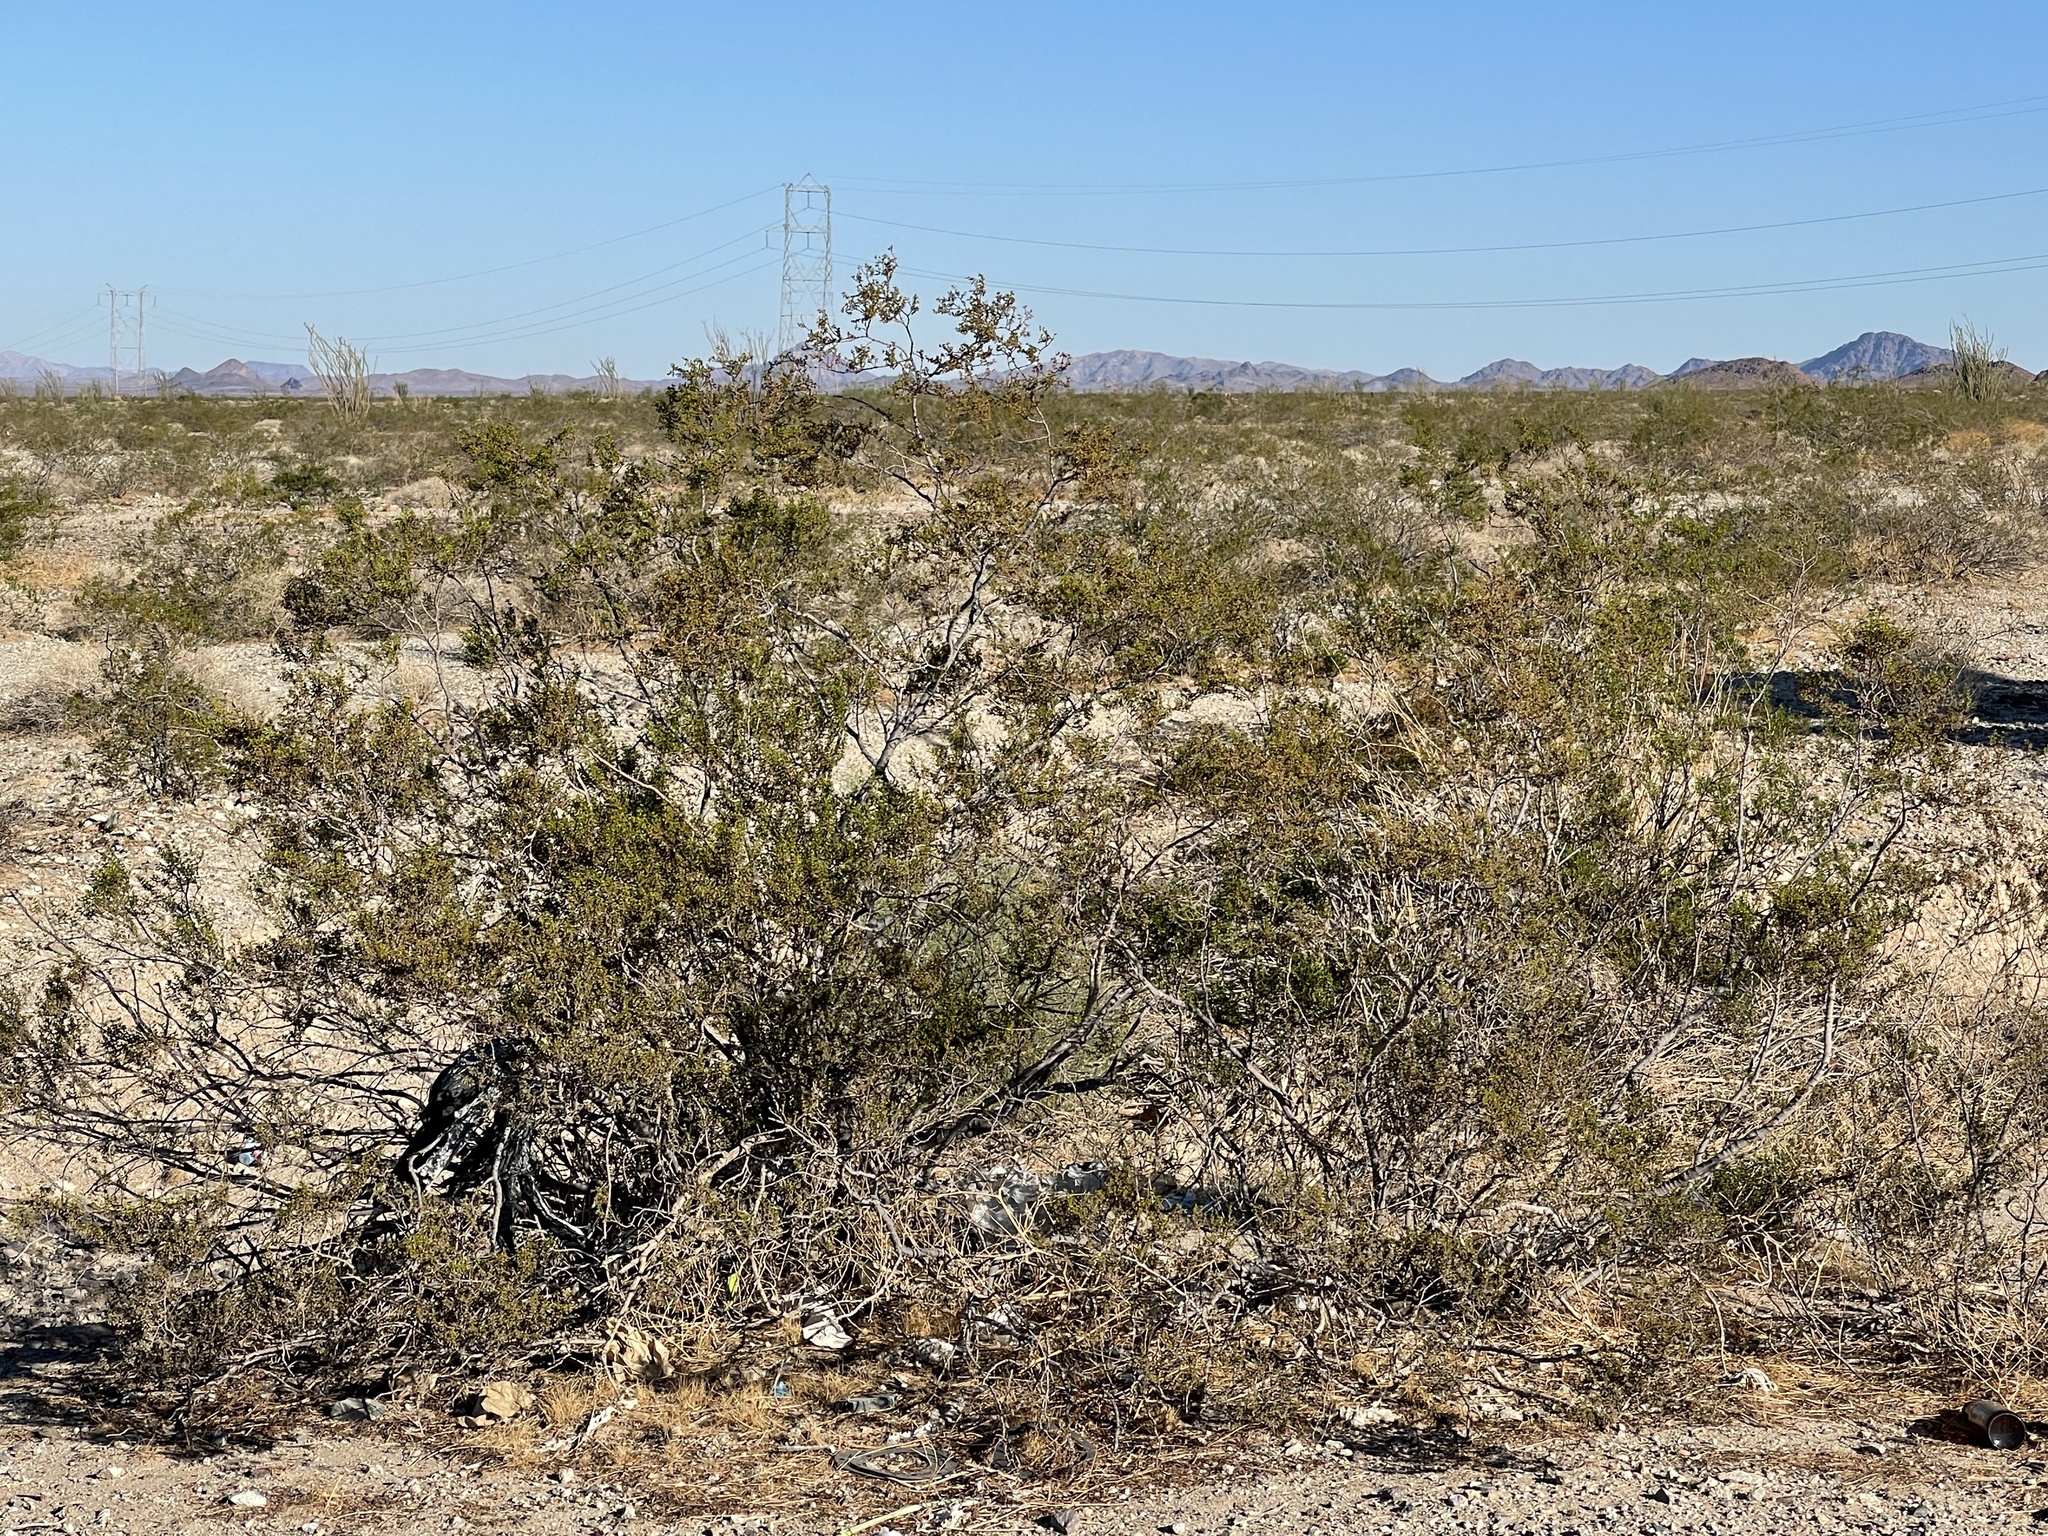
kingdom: Plantae
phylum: Tracheophyta
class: Magnoliopsida
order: Zygophyllales
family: Zygophyllaceae
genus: Larrea
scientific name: Larrea tridentata
